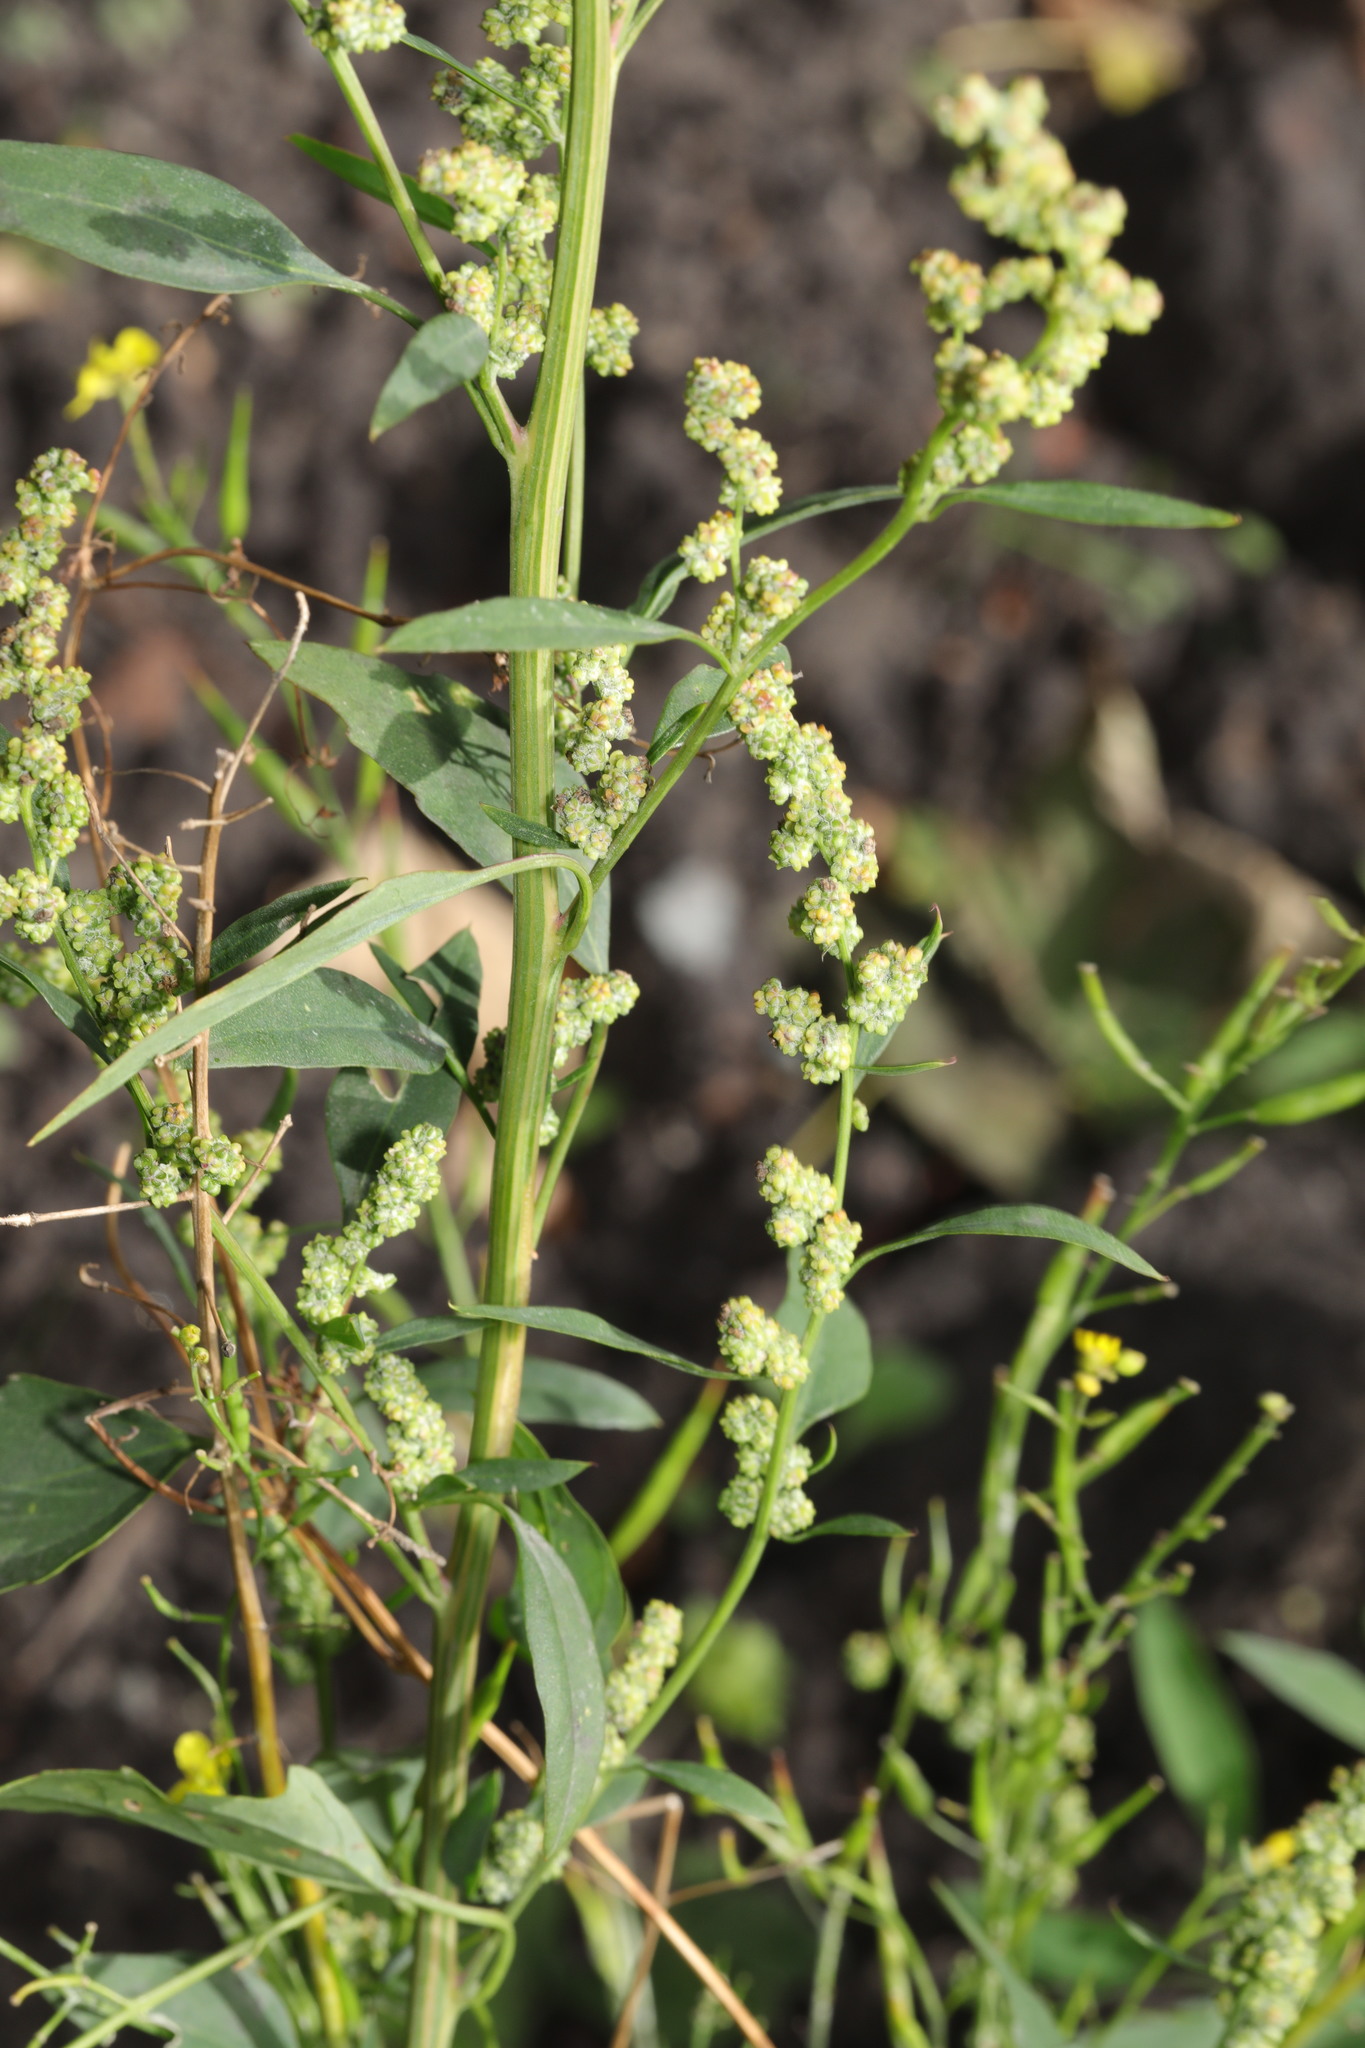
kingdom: Plantae
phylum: Tracheophyta
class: Magnoliopsida
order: Caryophyllales
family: Amaranthaceae
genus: Chenopodium
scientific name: Chenopodium album
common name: Fat-hen
